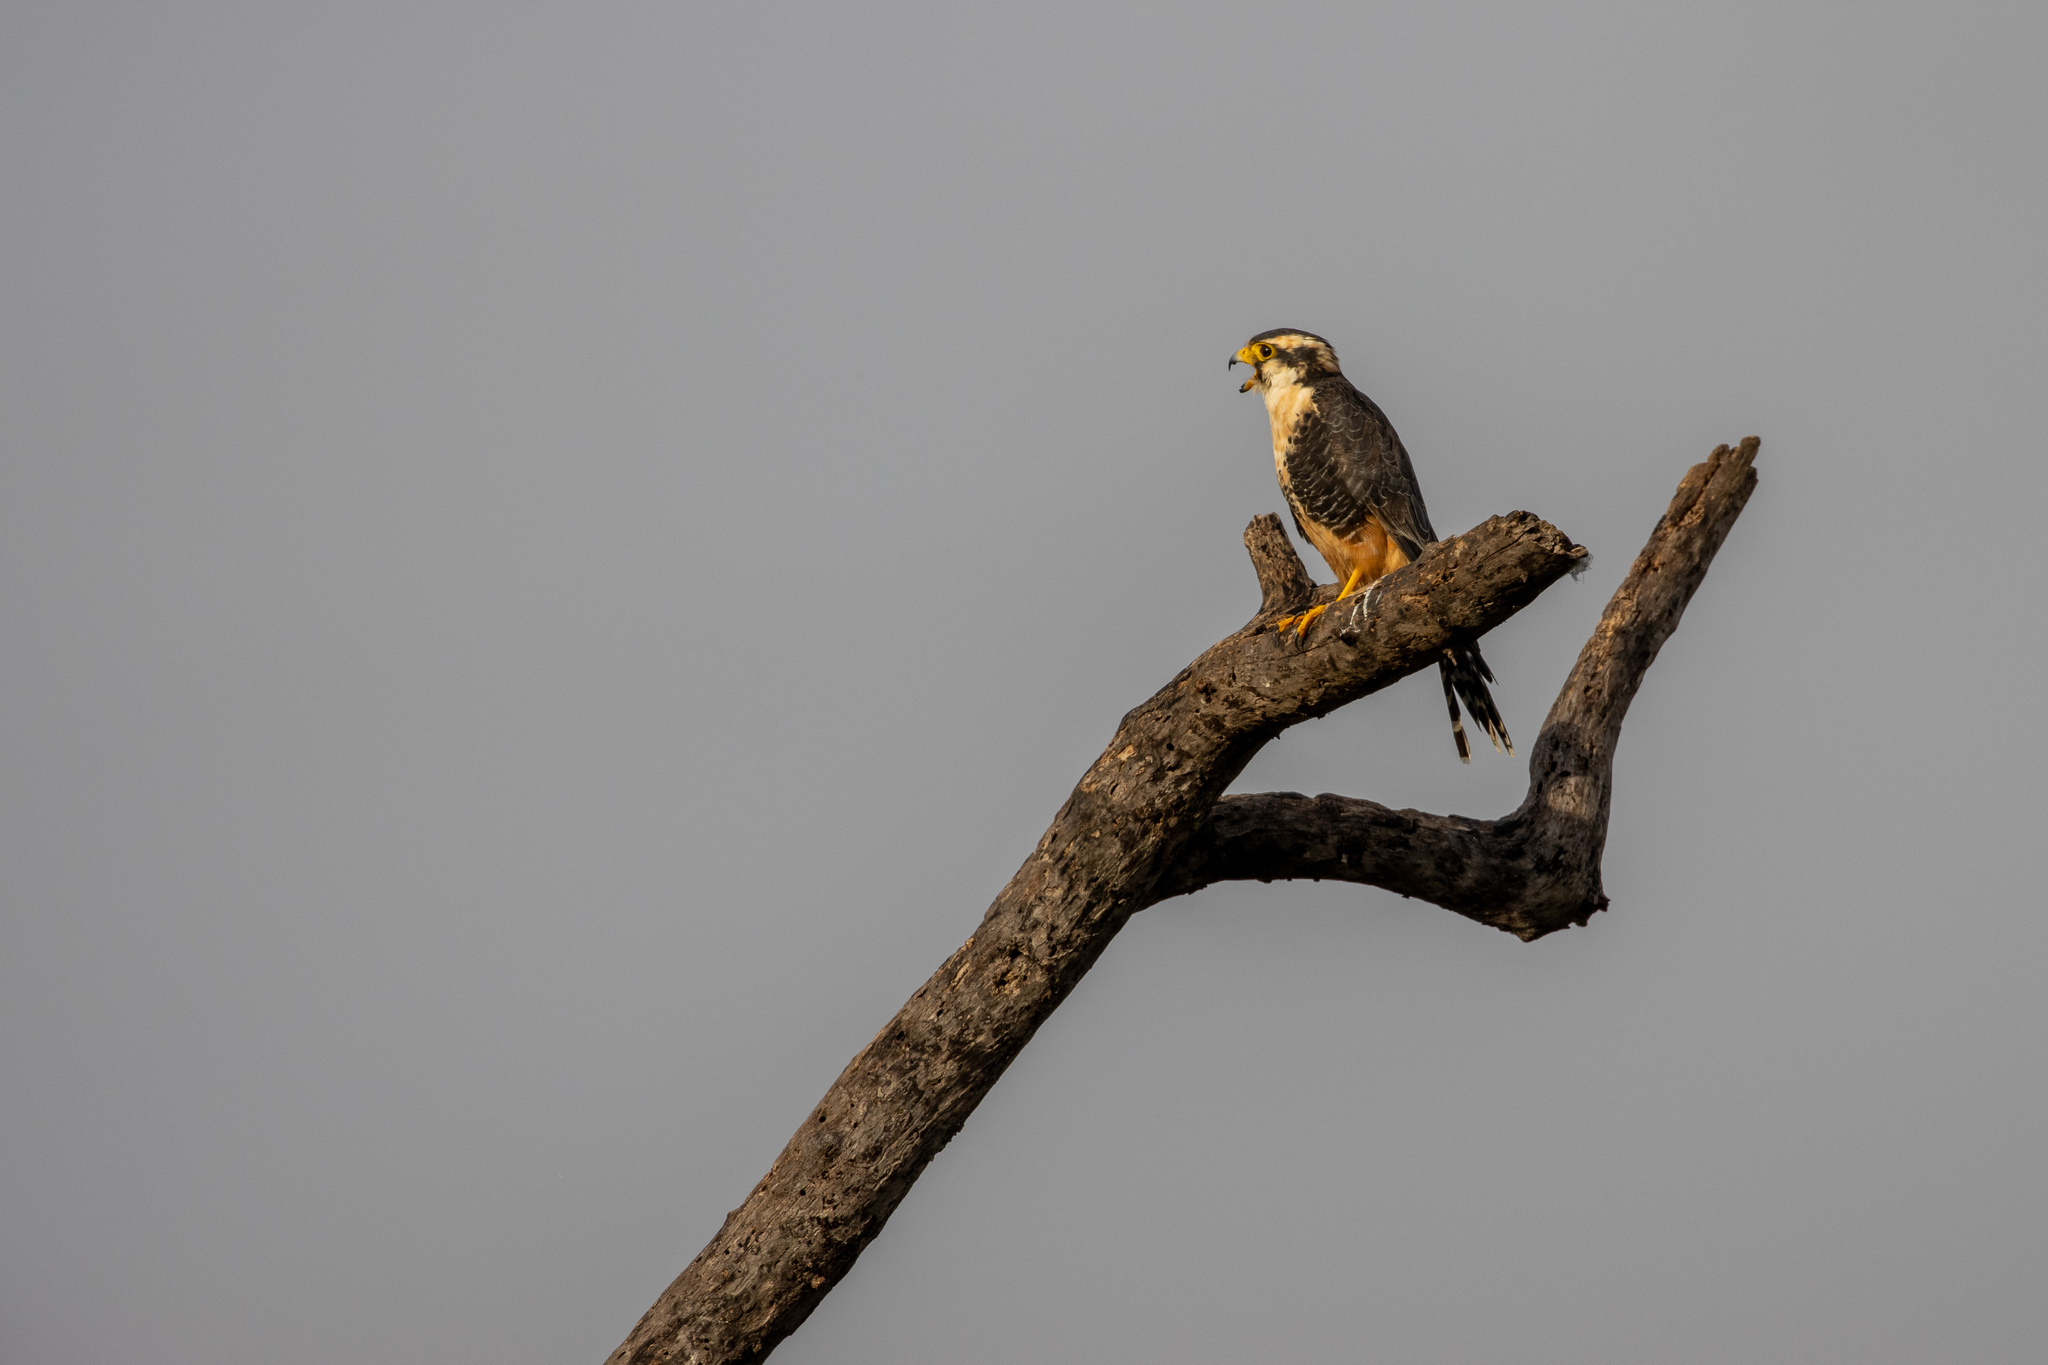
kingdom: Animalia
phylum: Chordata
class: Aves
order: Falconiformes
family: Falconidae
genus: Falco
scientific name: Falco femoralis
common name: Aplomado falcon
